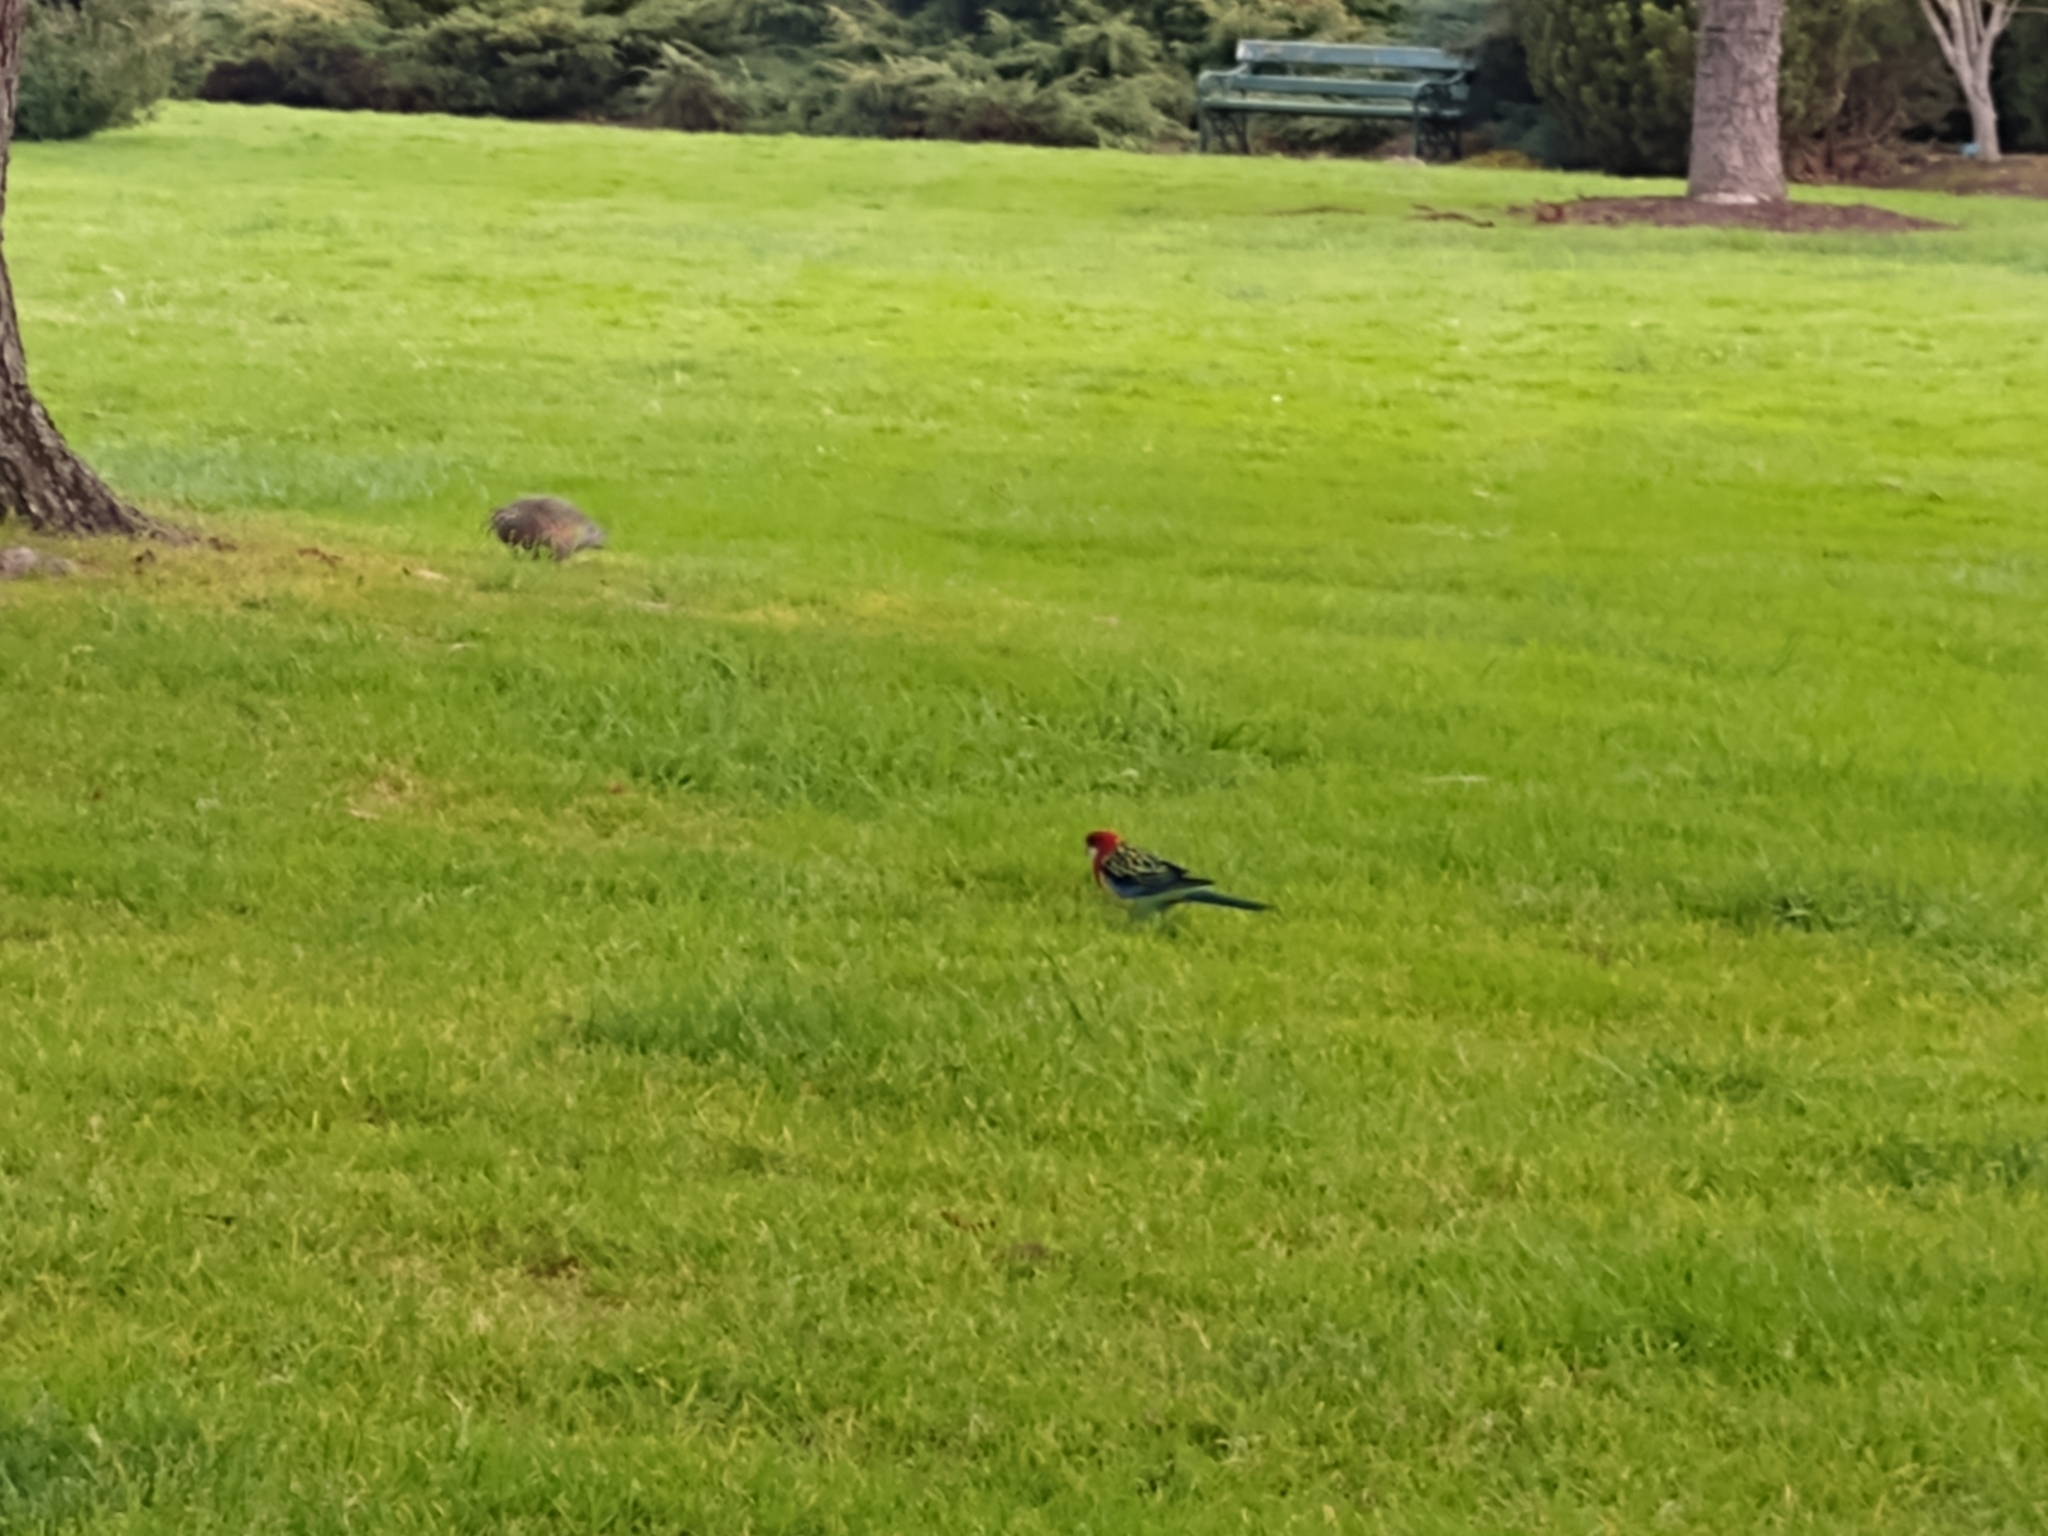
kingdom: Animalia
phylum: Chordata
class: Aves
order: Psittaciformes
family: Psittacidae
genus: Platycercus
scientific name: Platycercus eximius
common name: Eastern rosella
